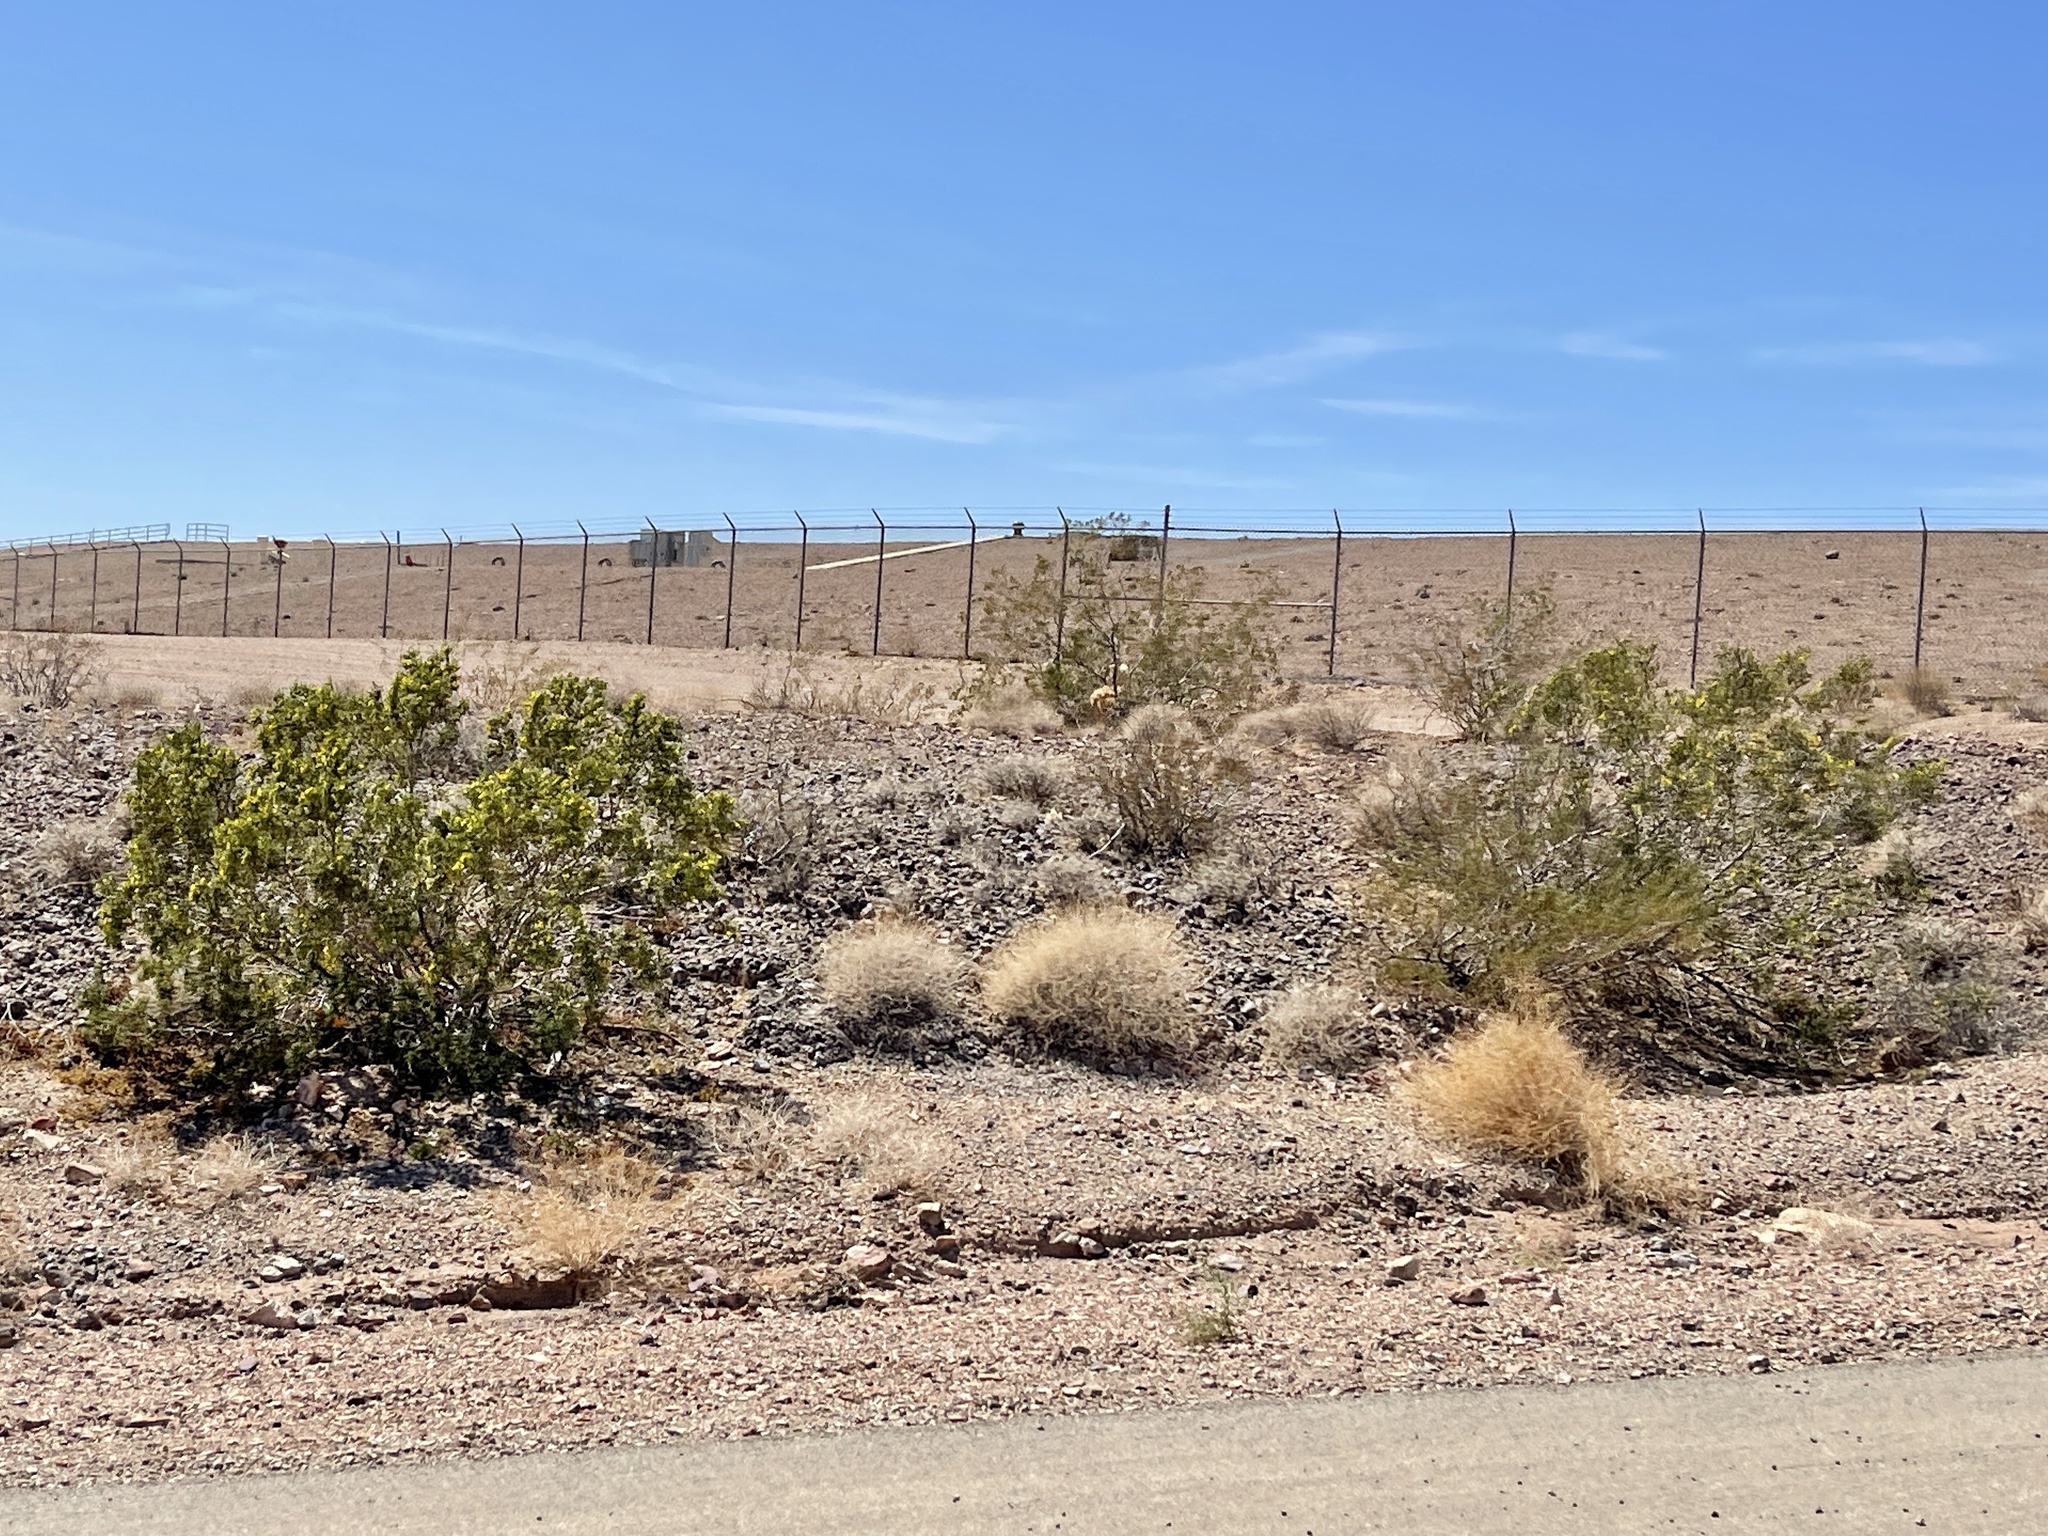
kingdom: Plantae
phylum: Tracheophyta
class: Magnoliopsida
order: Zygophyllales
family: Zygophyllaceae
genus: Larrea
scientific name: Larrea tridentata
